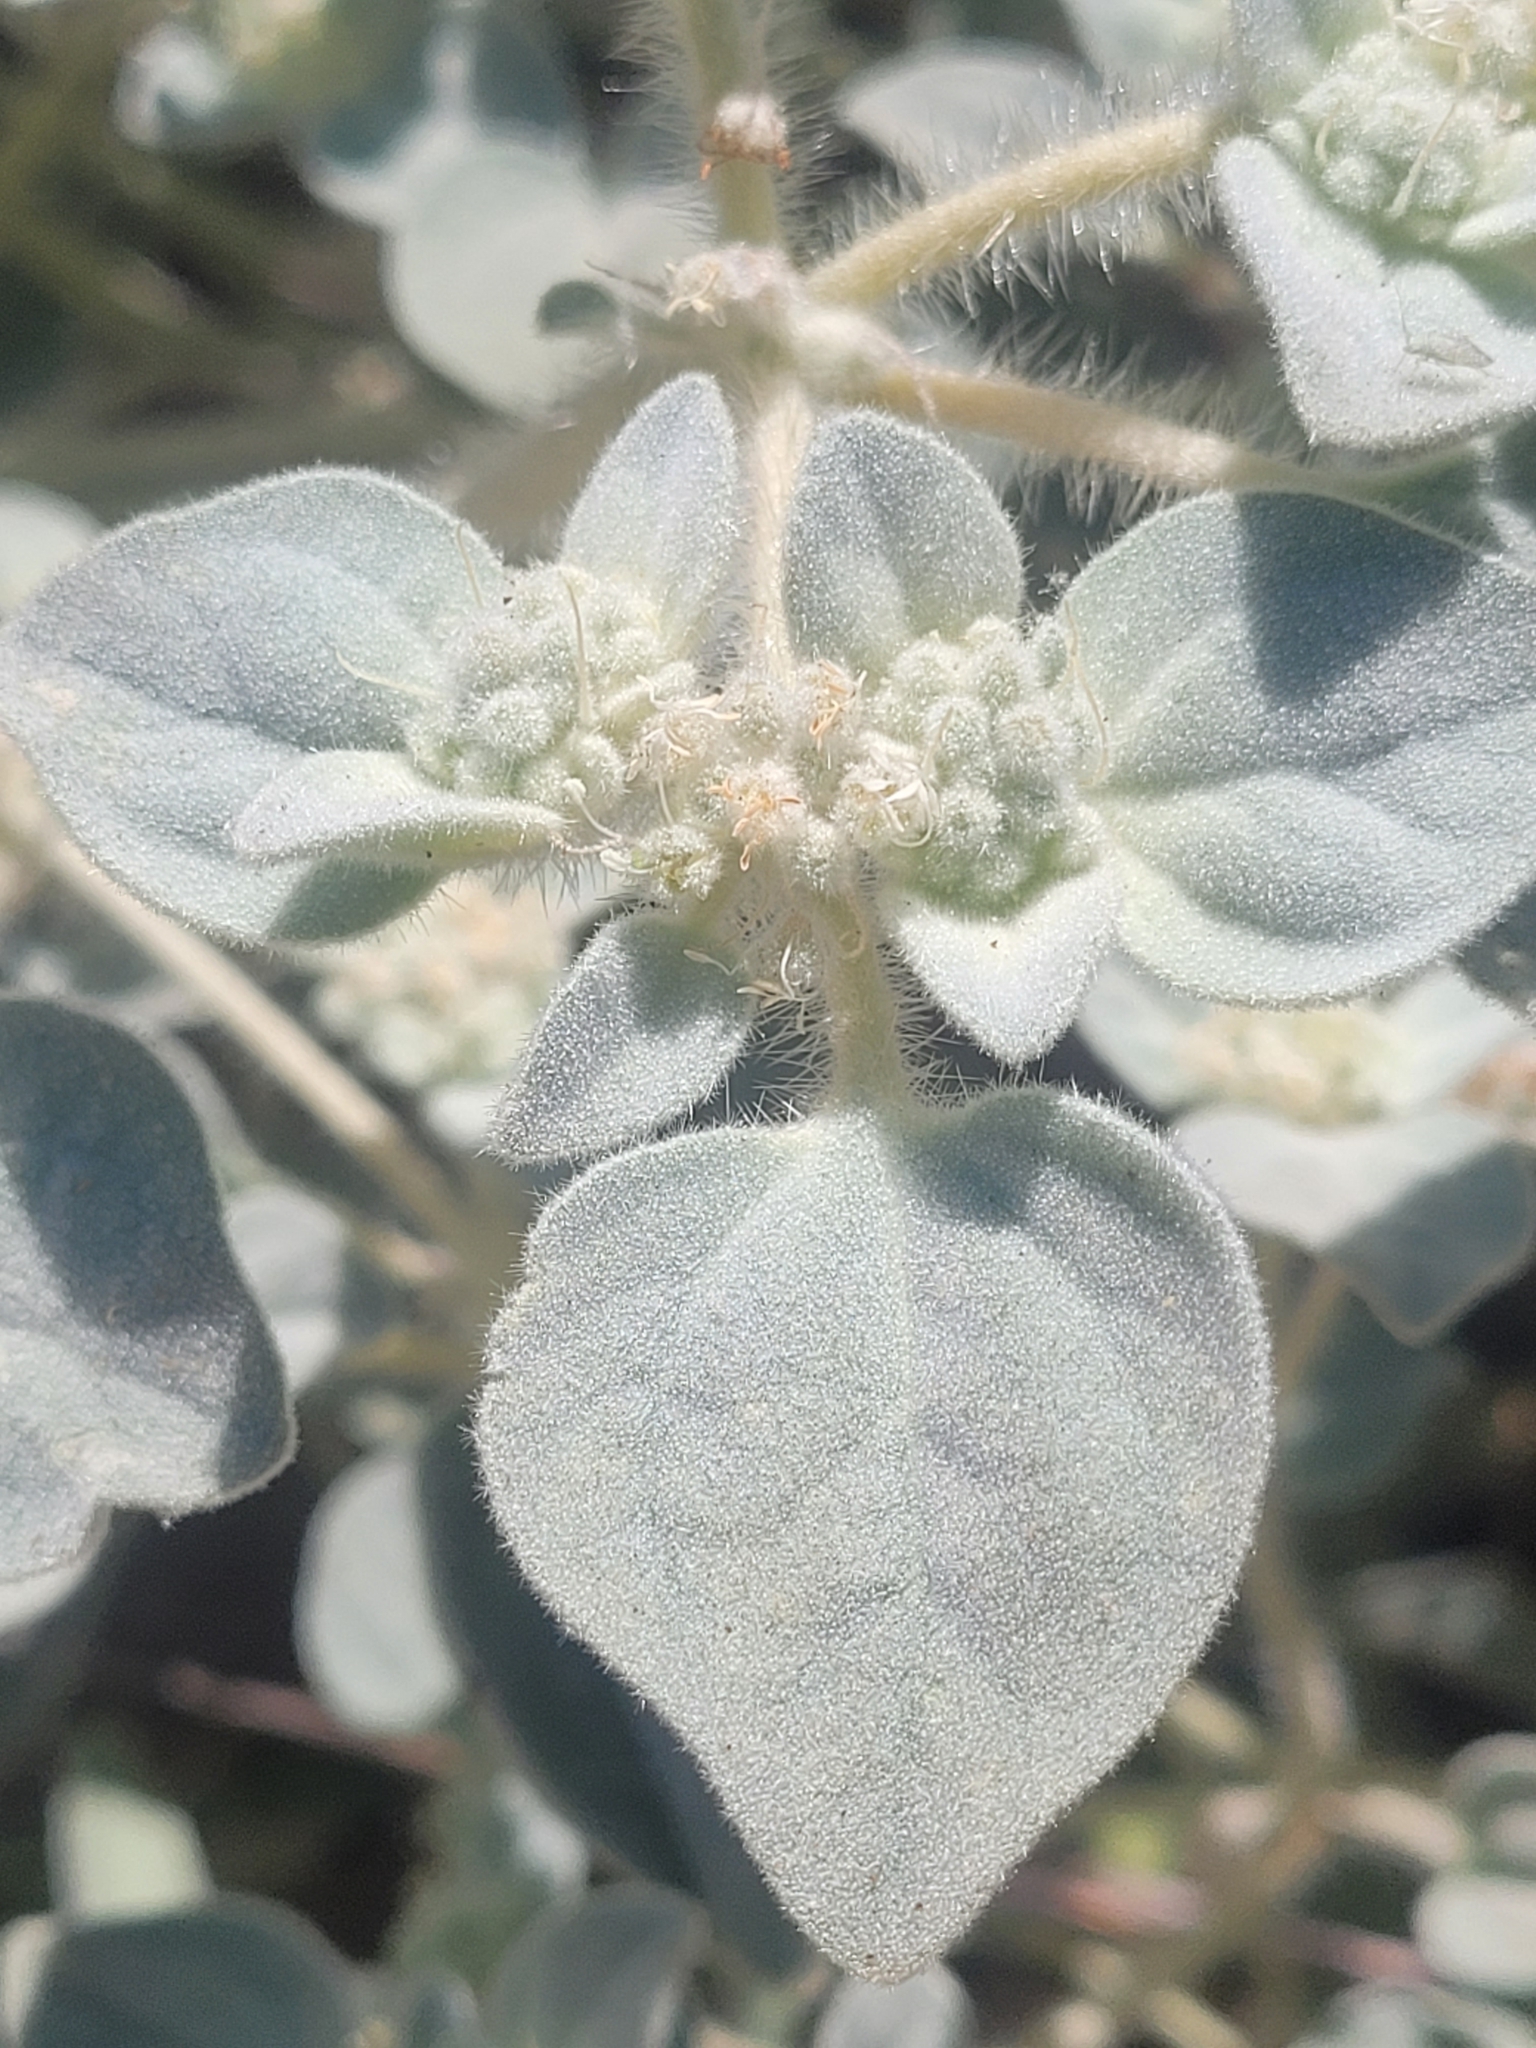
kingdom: Plantae
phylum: Tracheophyta
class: Magnoliopsida
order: Malpighiales
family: Euphorbiaceae
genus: Croton
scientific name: Croton setiger
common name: Dove weed
